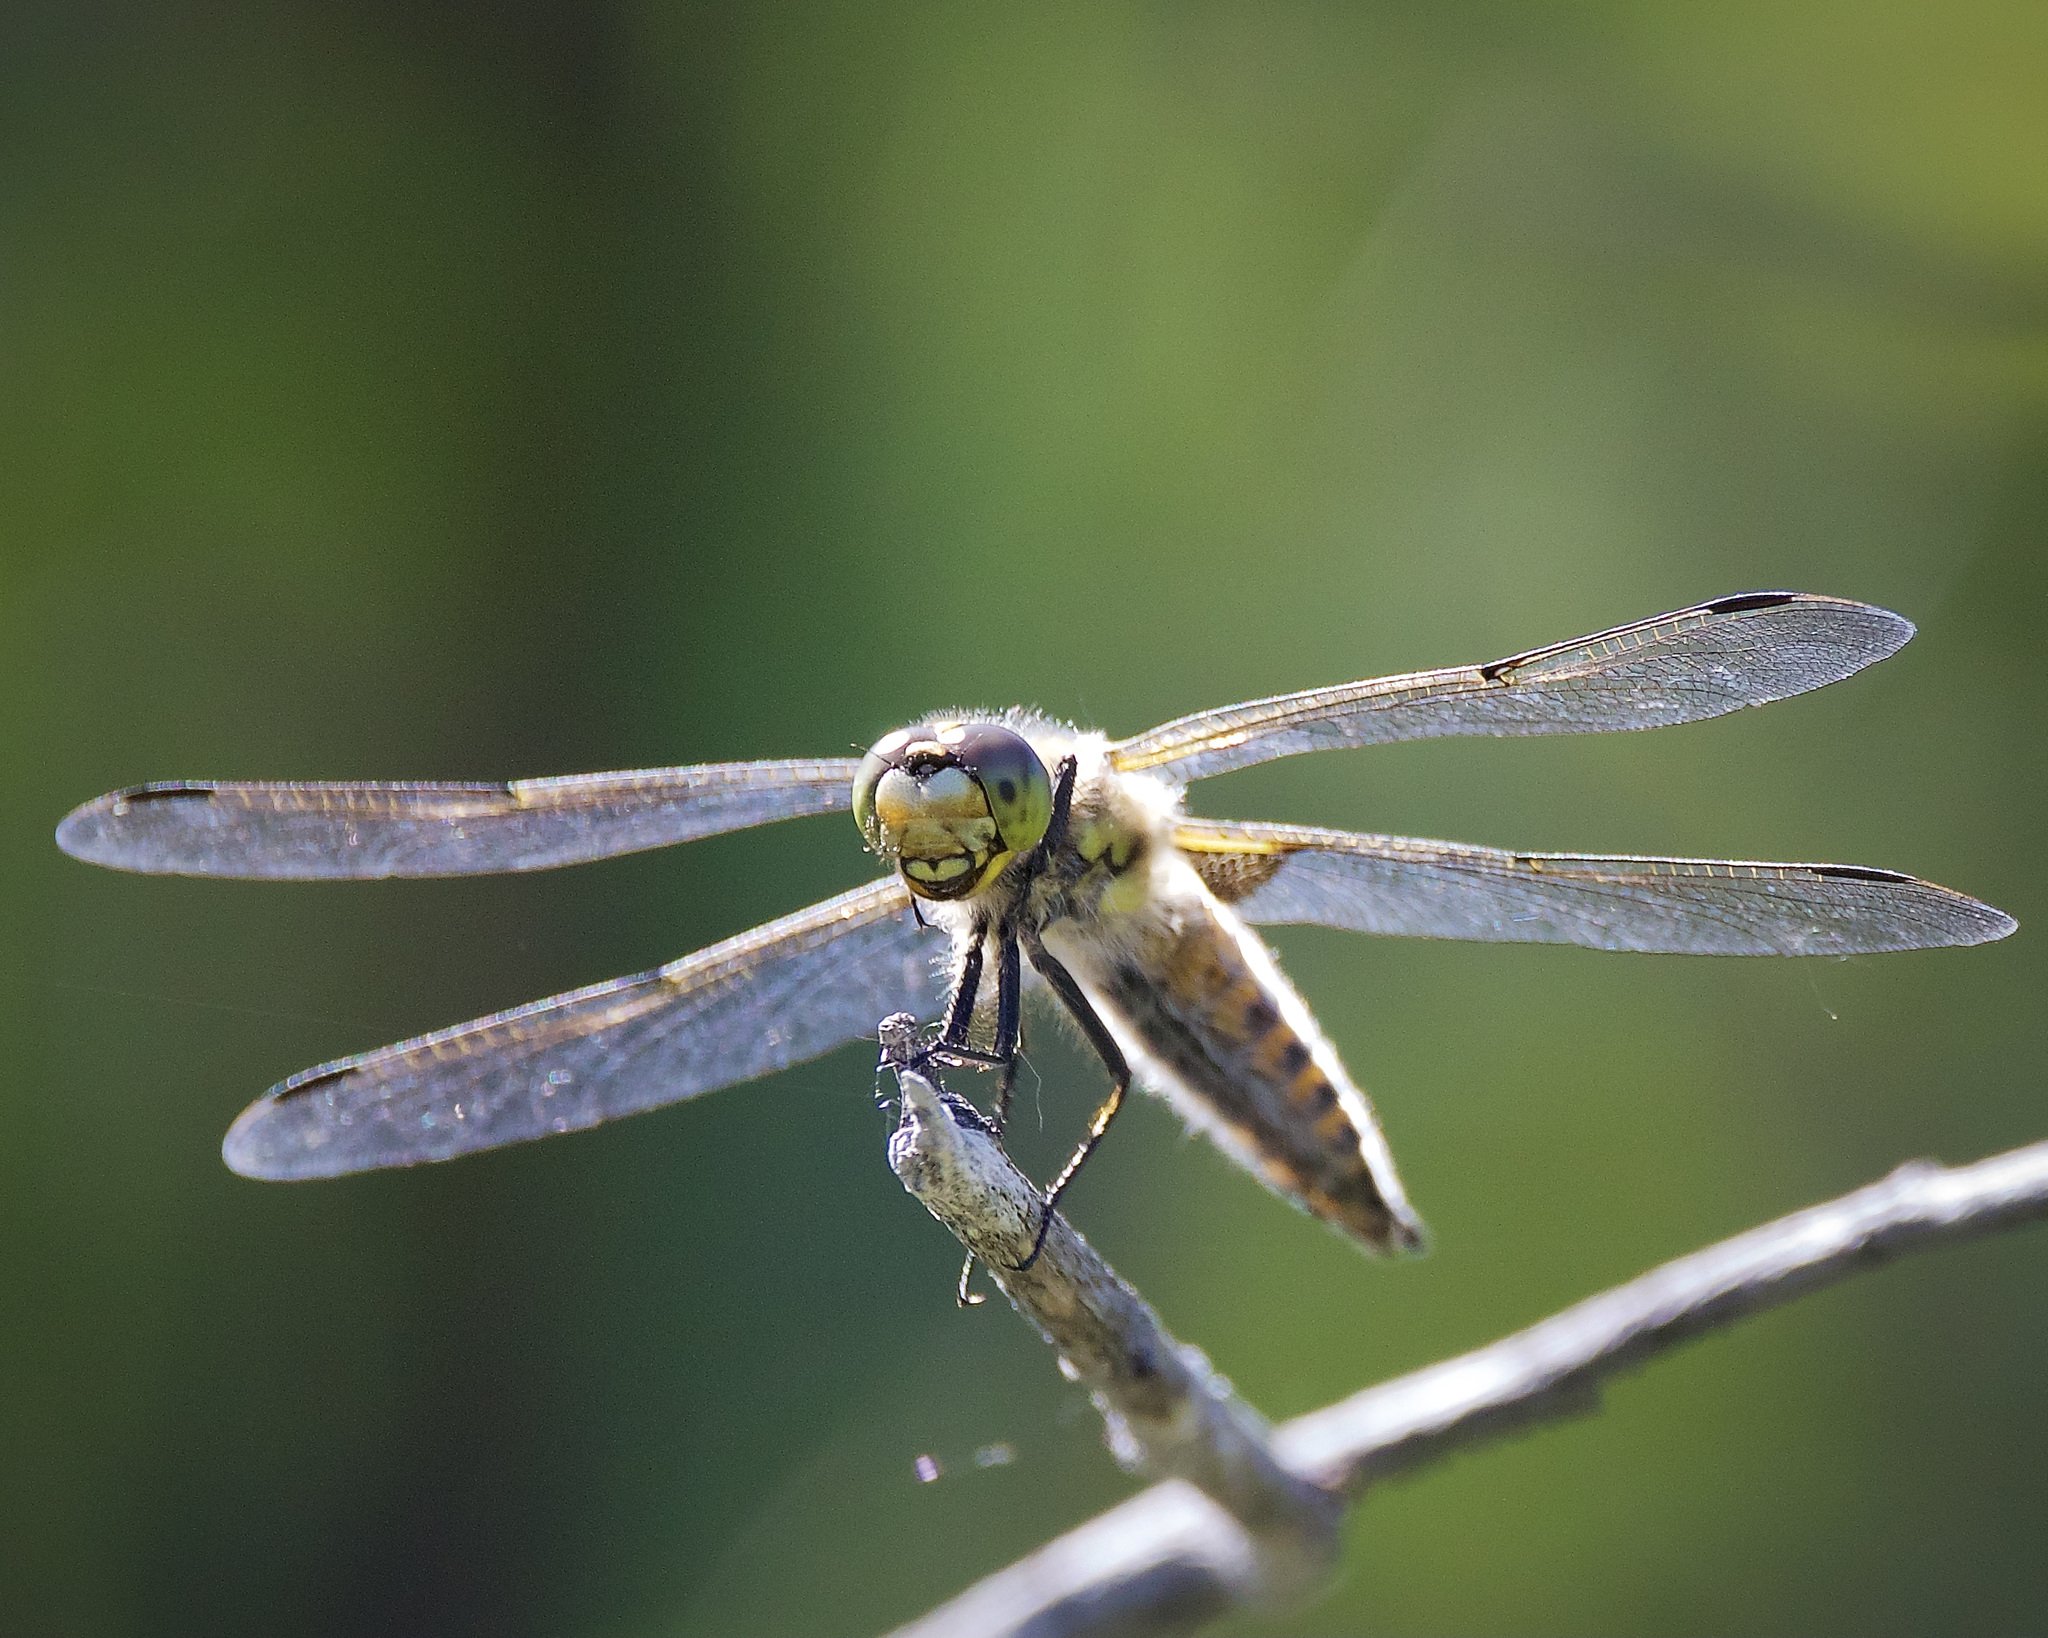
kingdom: Animalia
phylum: Arthropoda
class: Insecta
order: Odonata
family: Libellulidae
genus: Libellula
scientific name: Libellula quadrimaculata
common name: Four-spotted chaser
